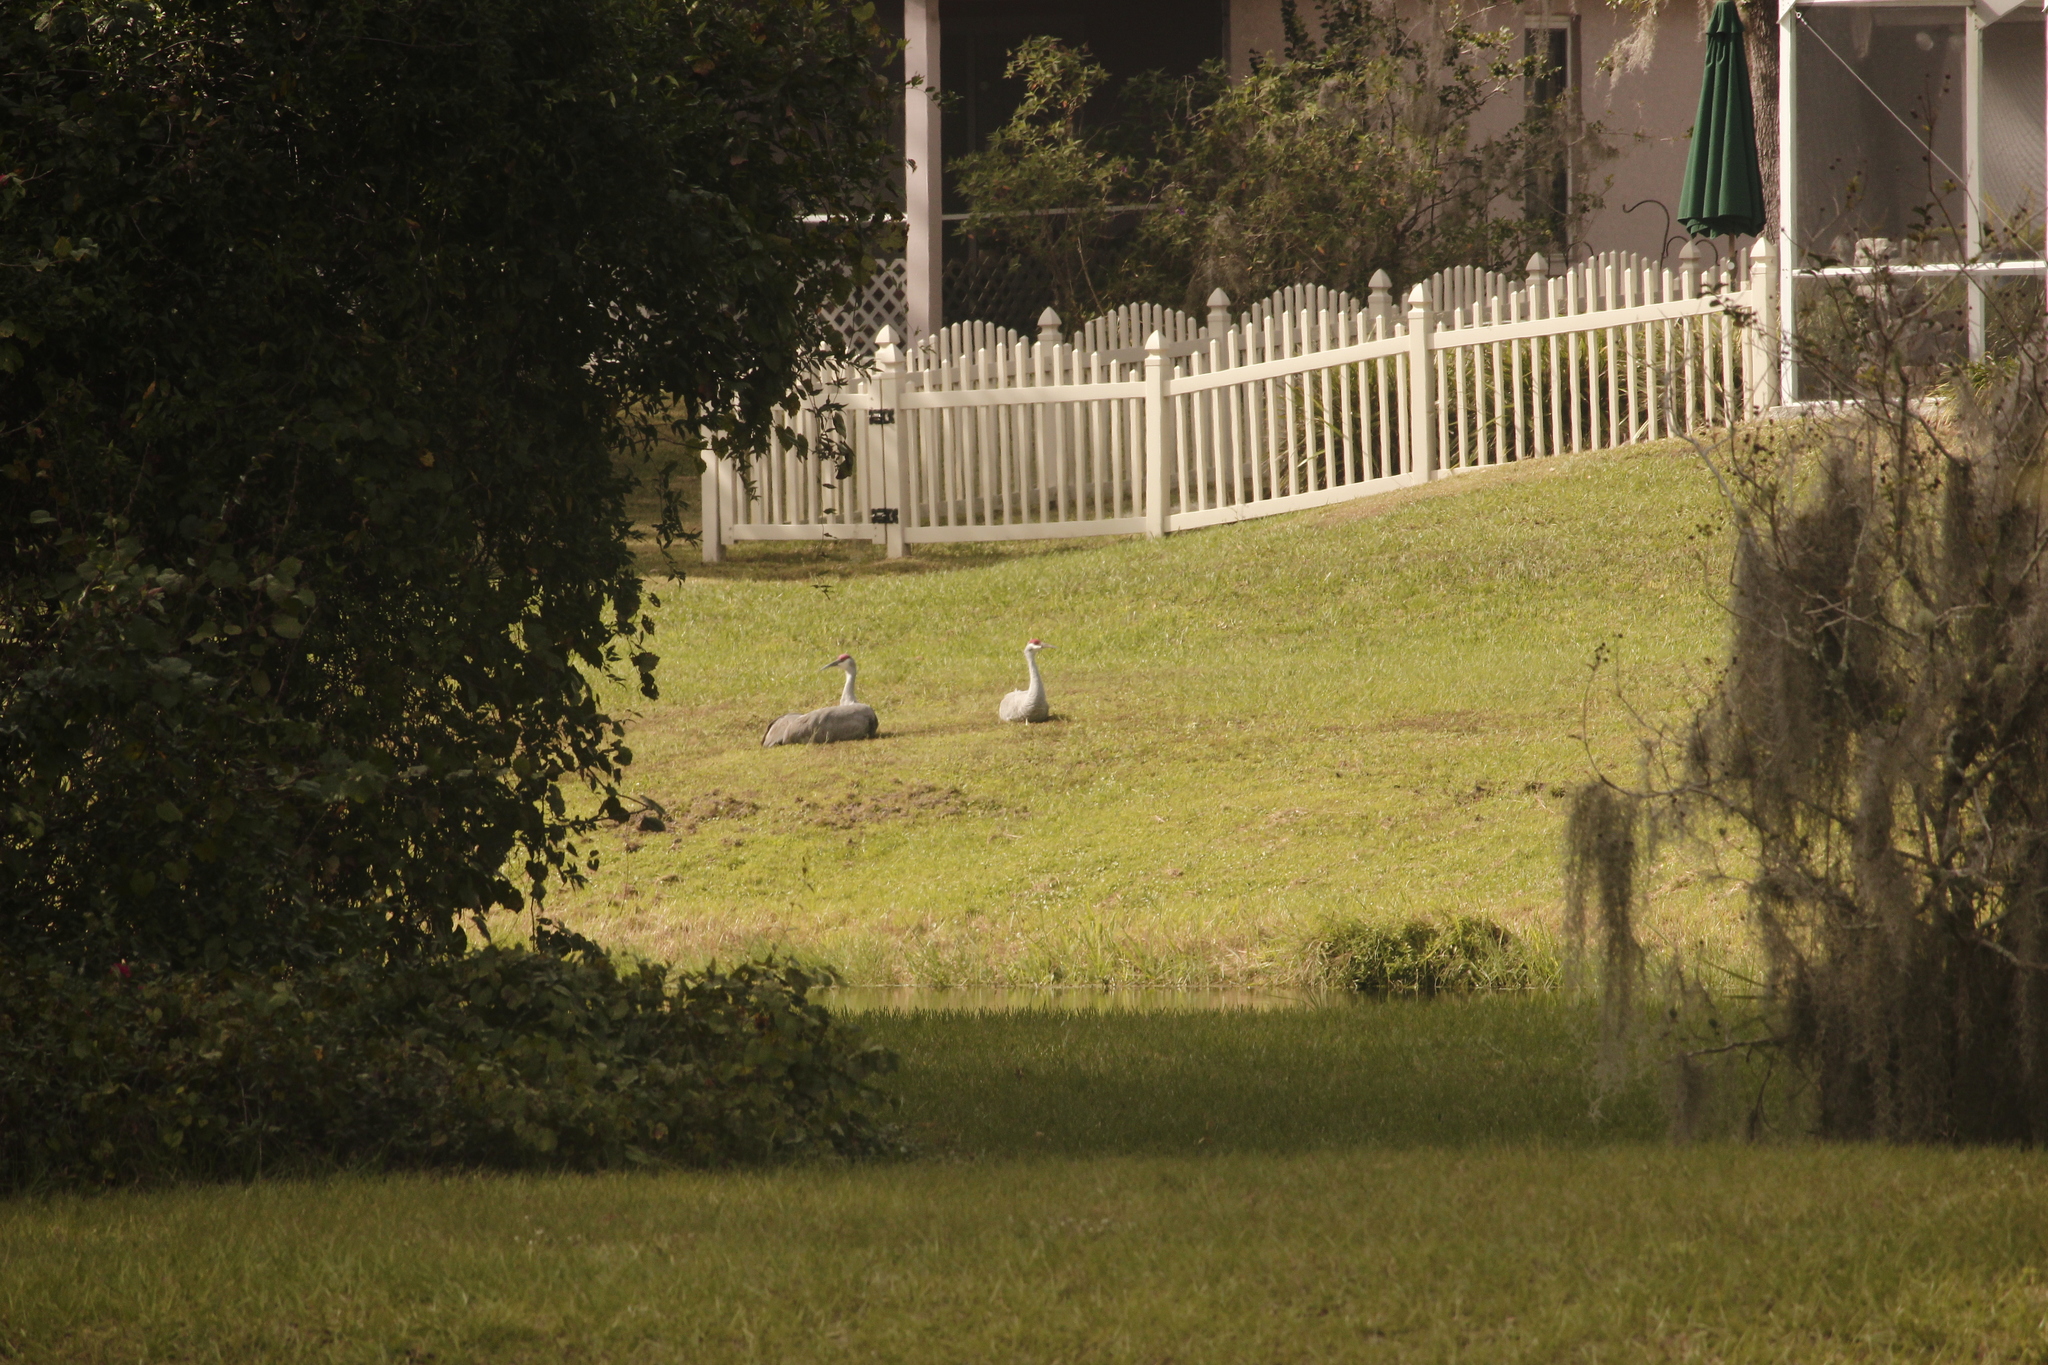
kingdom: Animalia
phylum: Chordata
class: Aves
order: Gruiformes
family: Gruidae
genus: Grus
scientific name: Grus canadensis
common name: Sandhill crane
